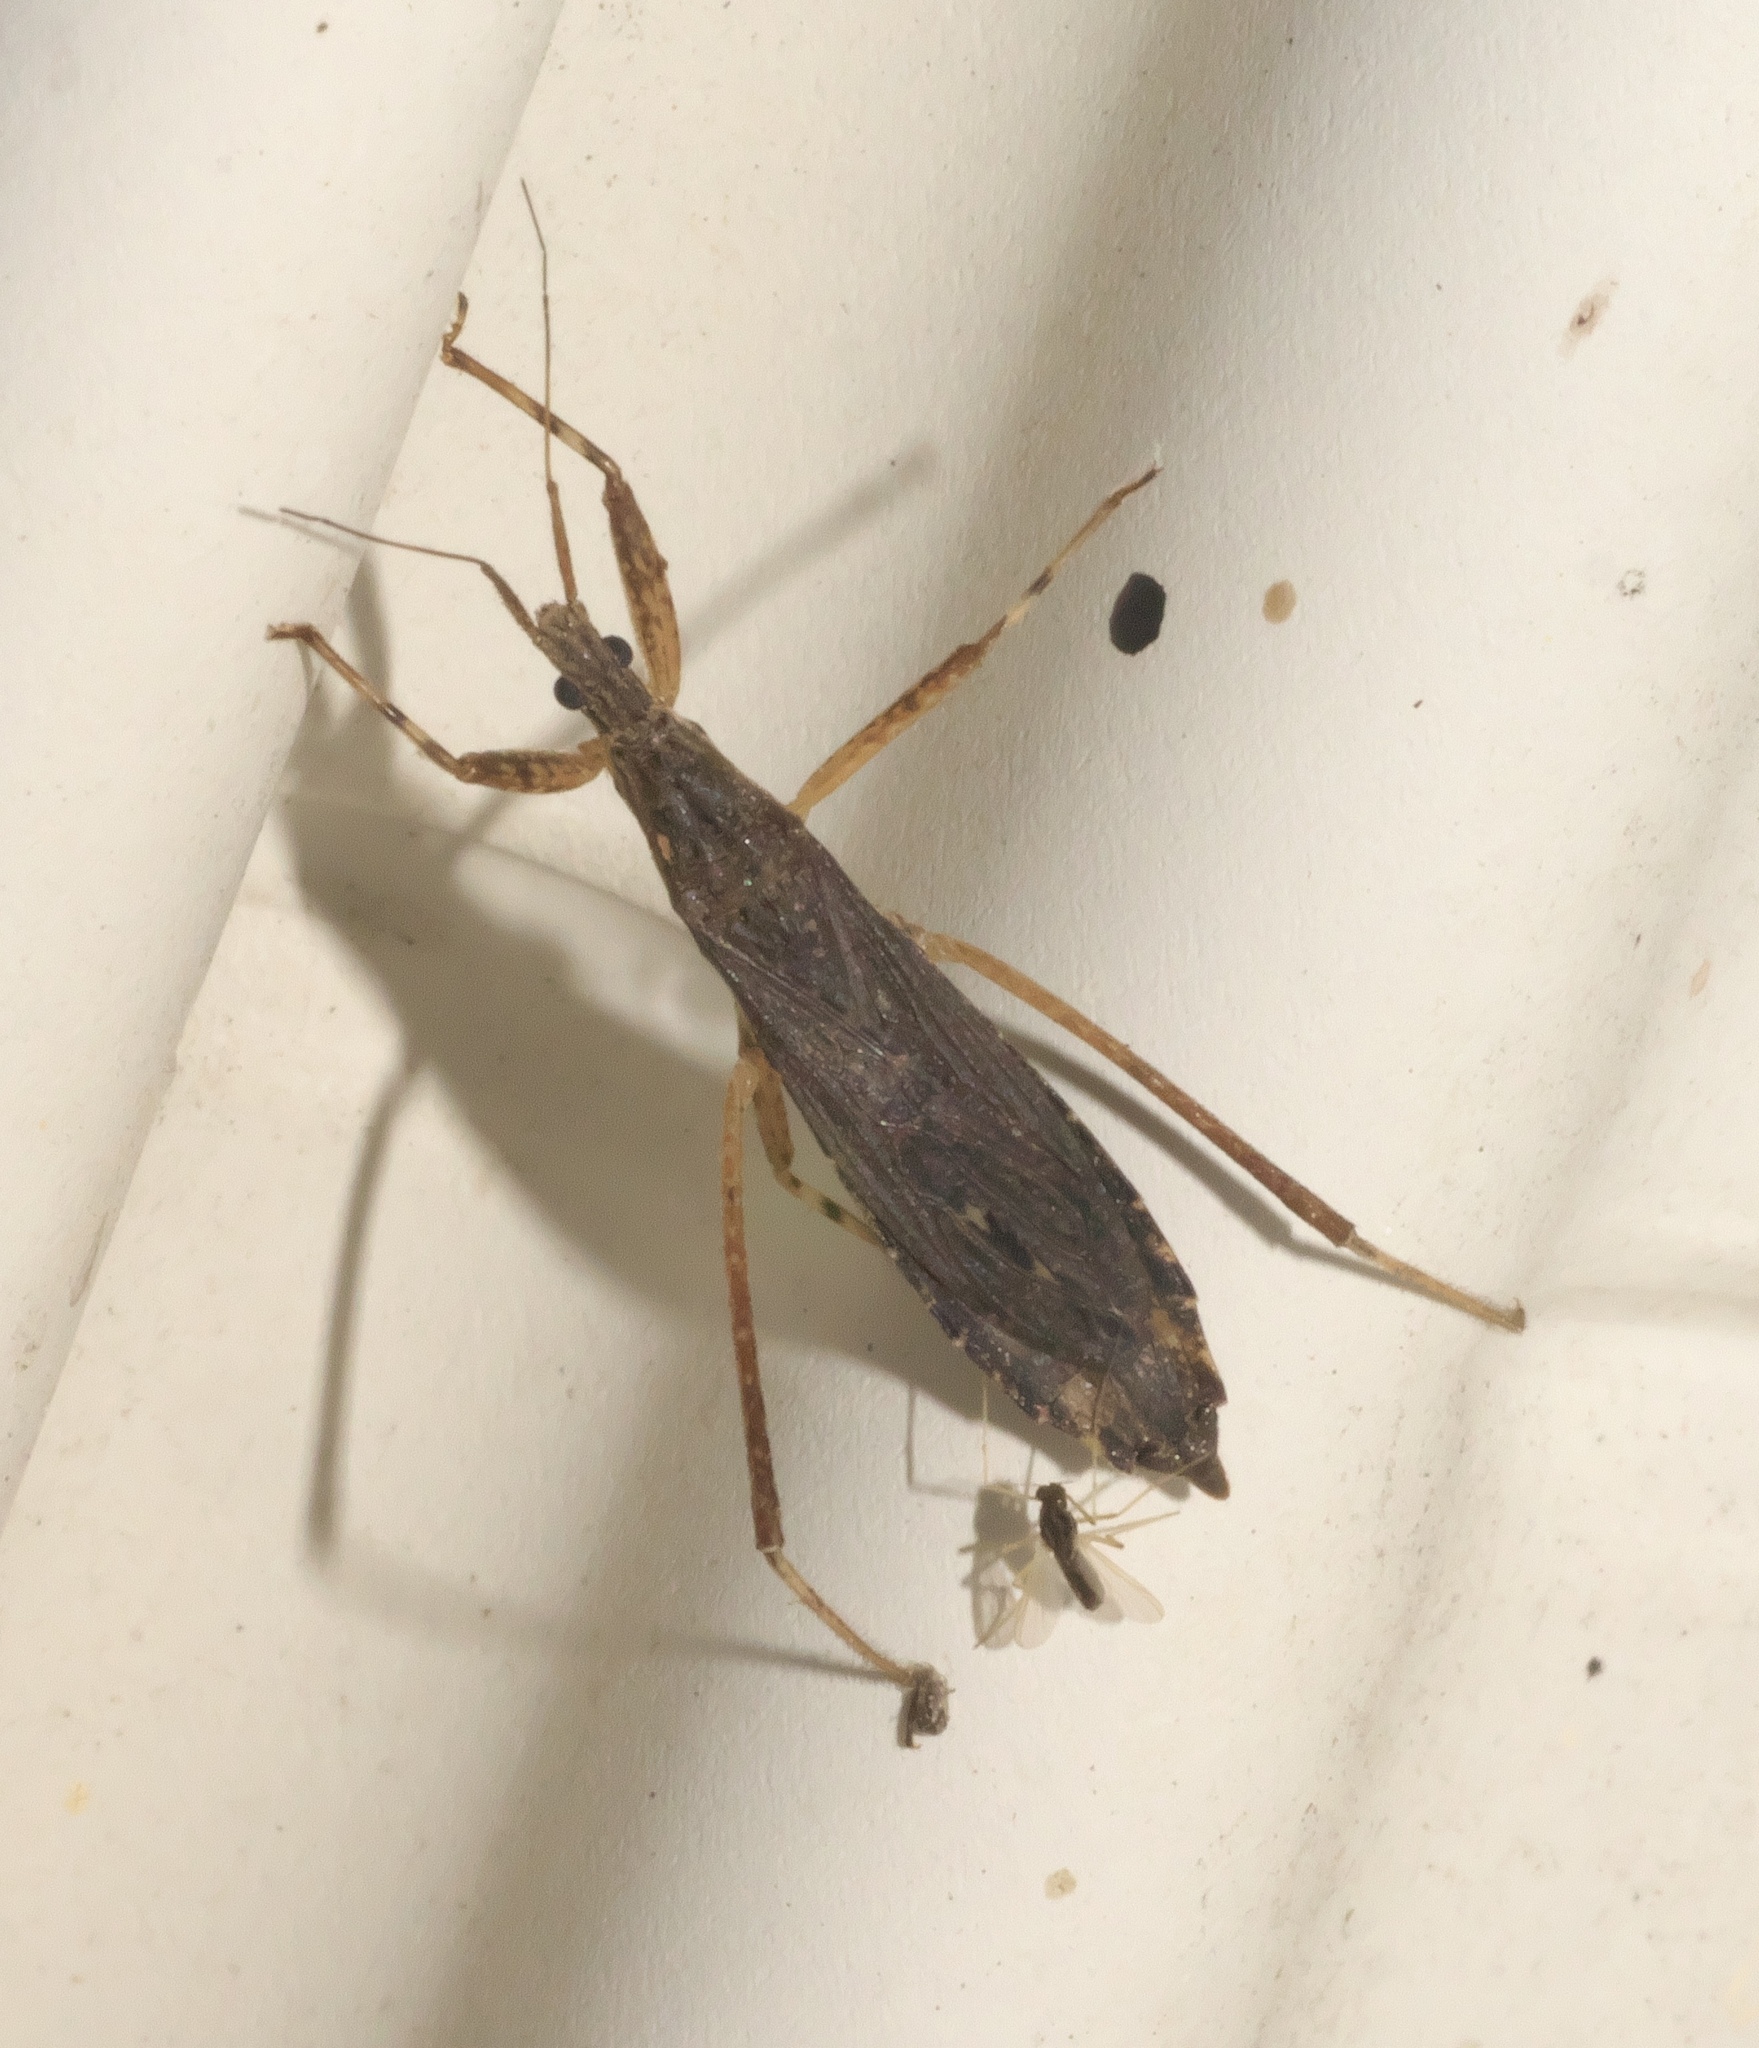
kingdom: Animalia
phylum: Arthropoda
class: Insecta
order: Hemiptera
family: Reduviidae
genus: Pygolampis
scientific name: Pygolampis pectoralis
